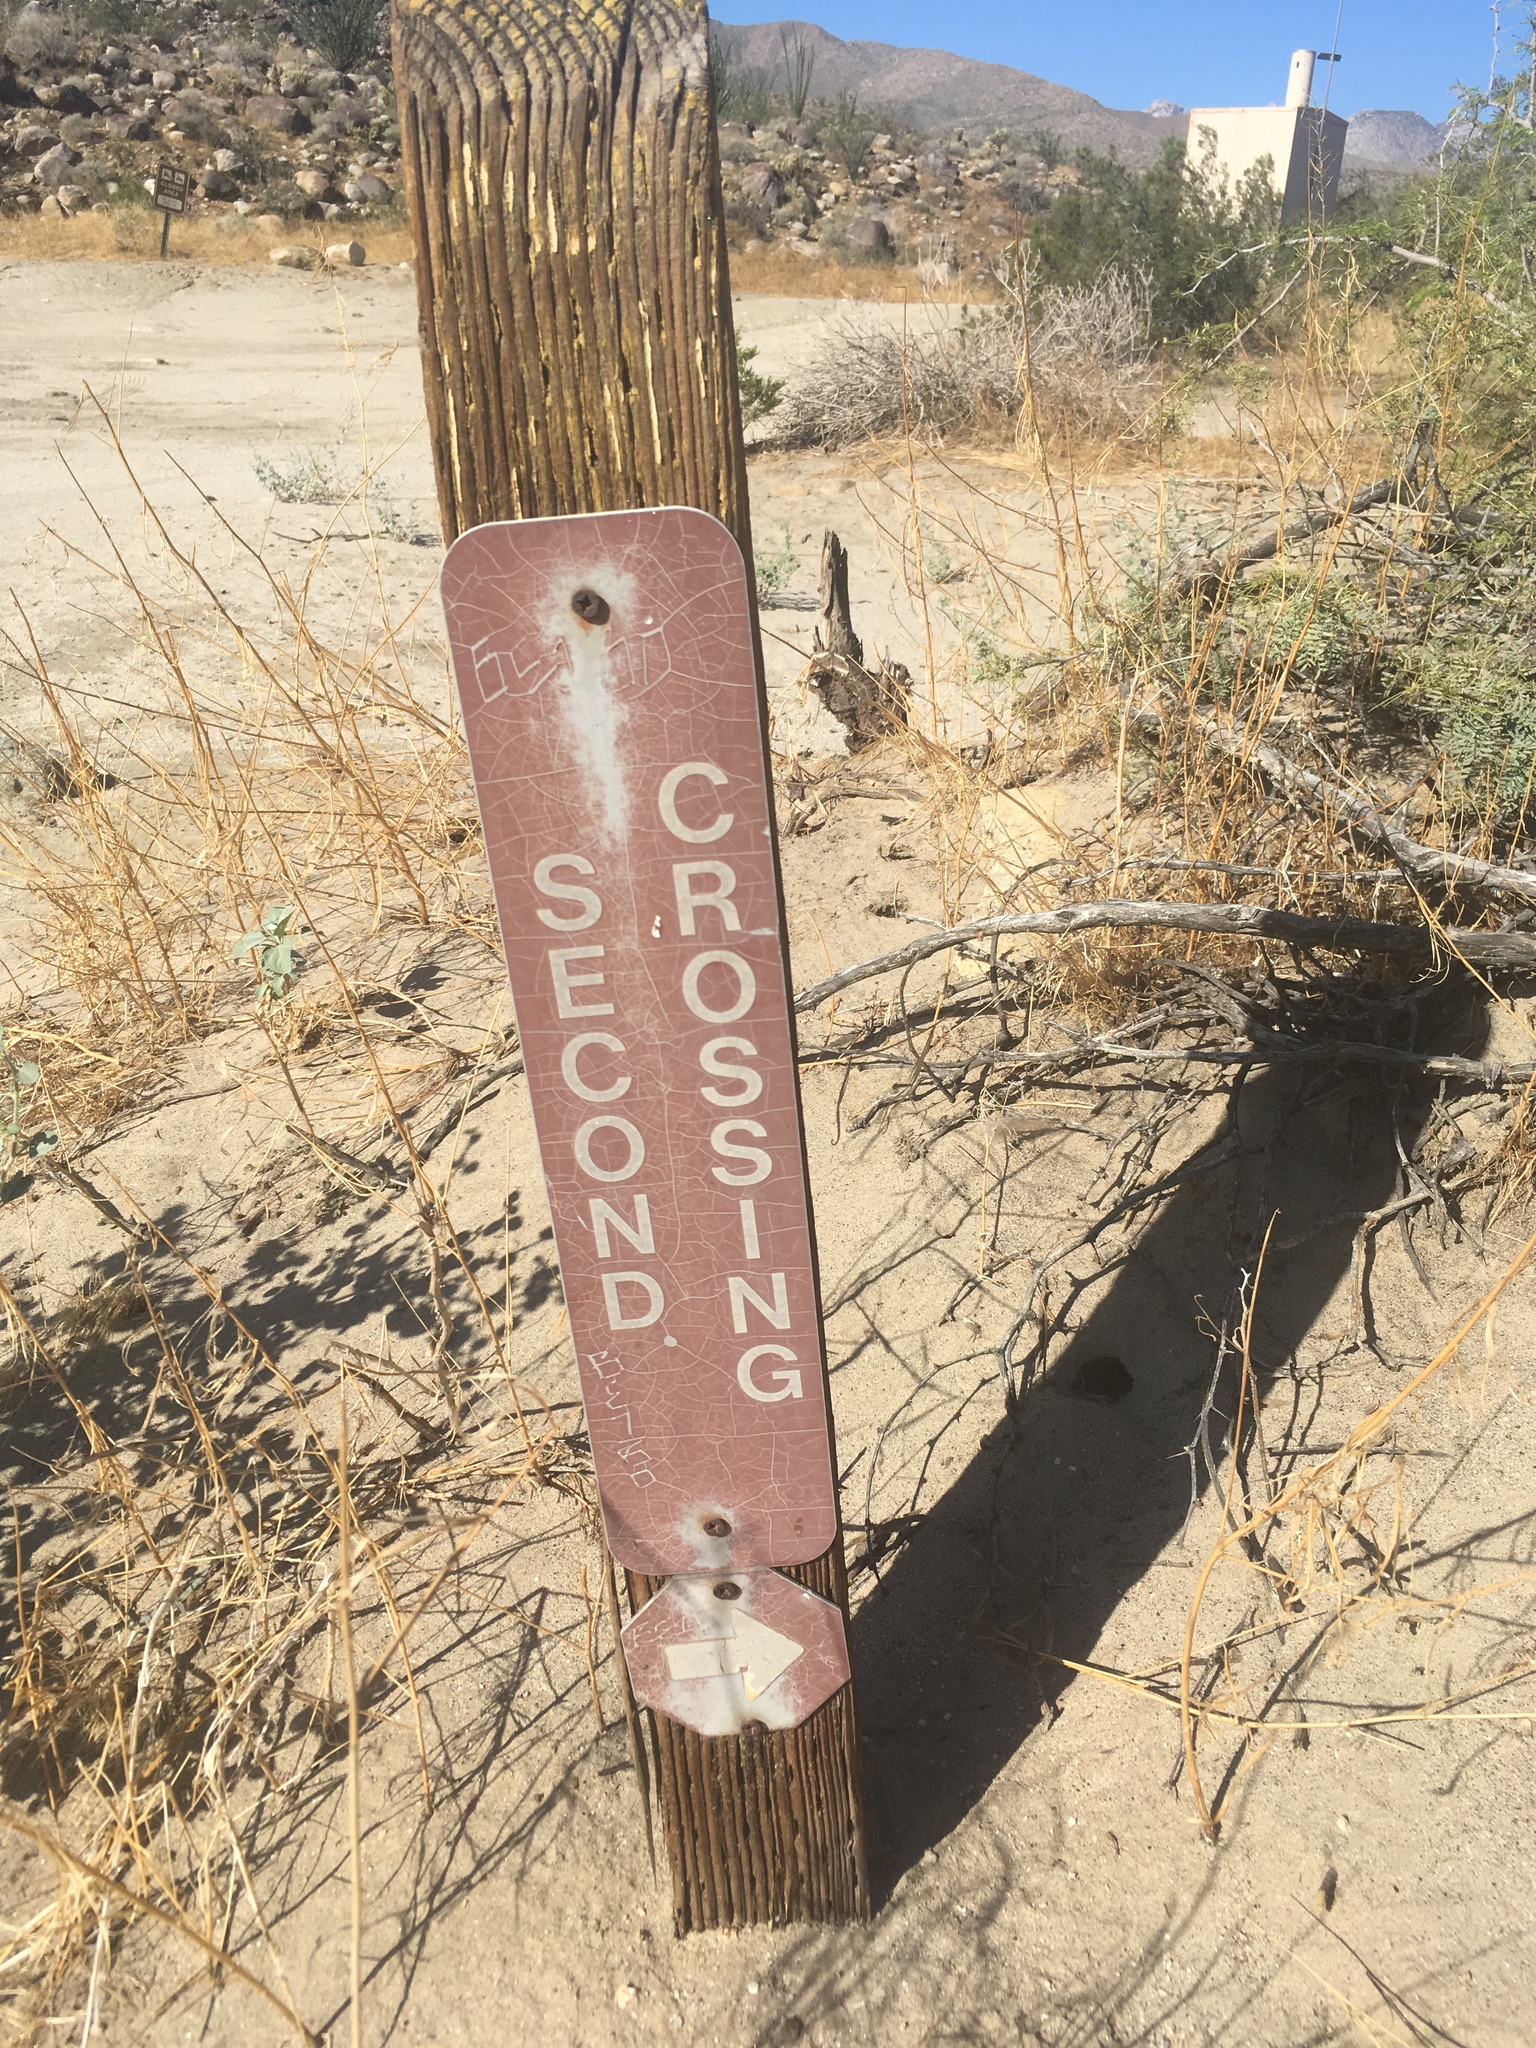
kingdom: Plantae
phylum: Tracheophyta
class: Magnoliopsida
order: Lamiales
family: Bignoniaceae
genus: Chilopsis
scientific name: Chilopsis linearis
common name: Desert-willow
